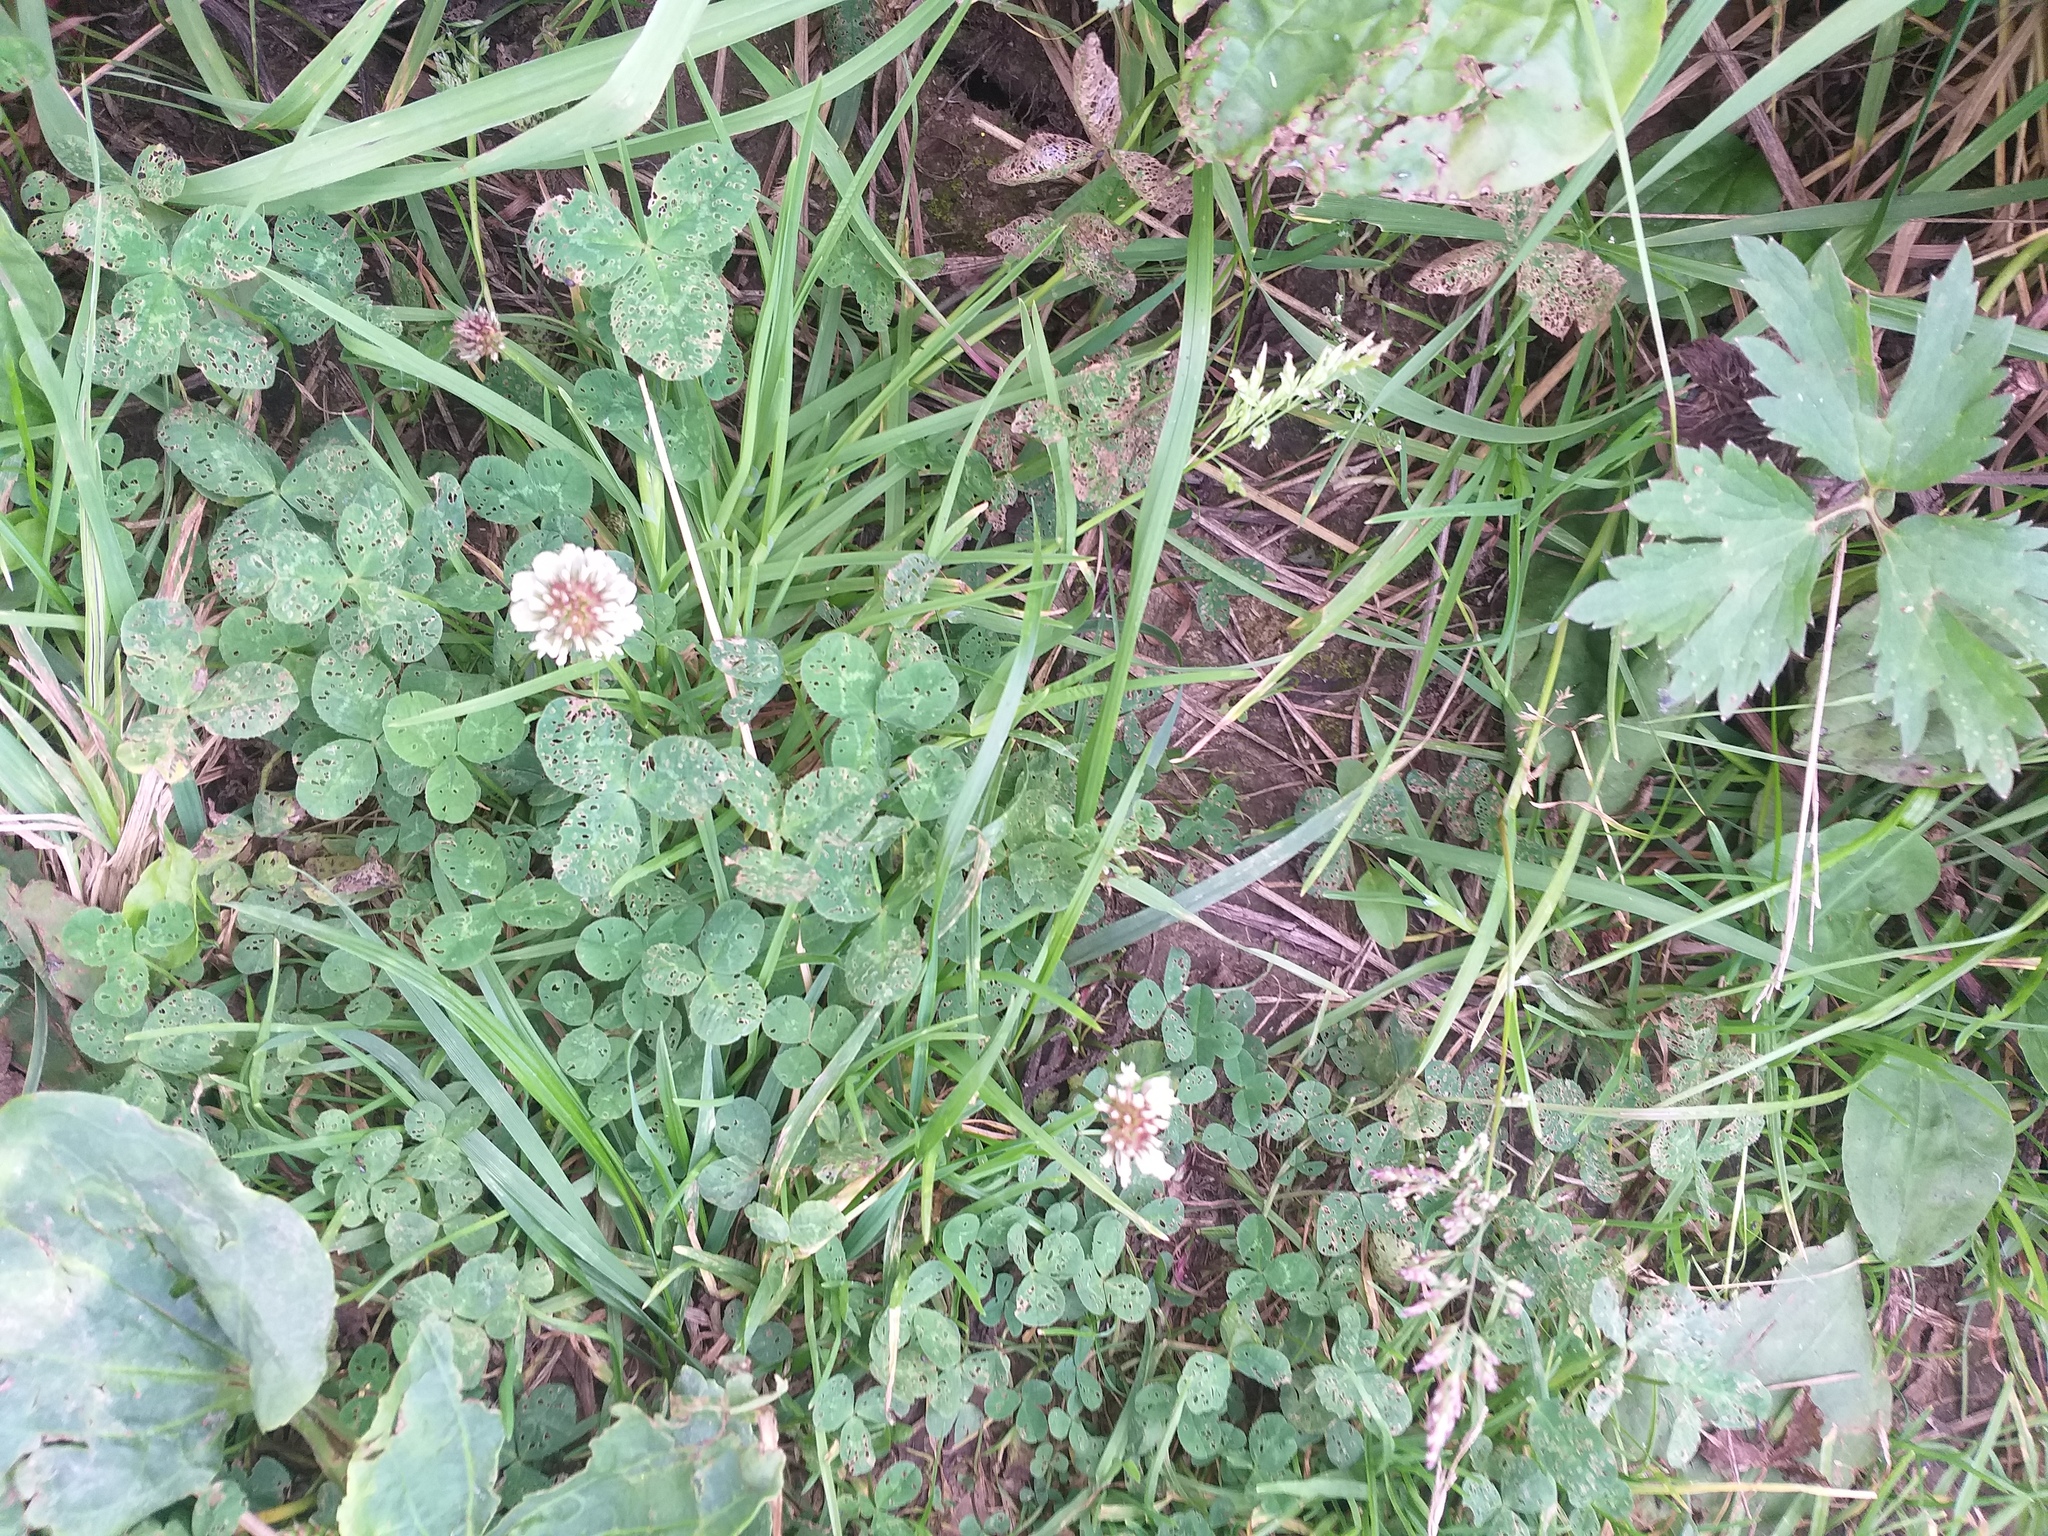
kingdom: Plantae
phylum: Tracheophyta
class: Magnoliopsida
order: Fabales
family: Fabaceae
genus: Trifolium
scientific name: Trifolium repens
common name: White clover
